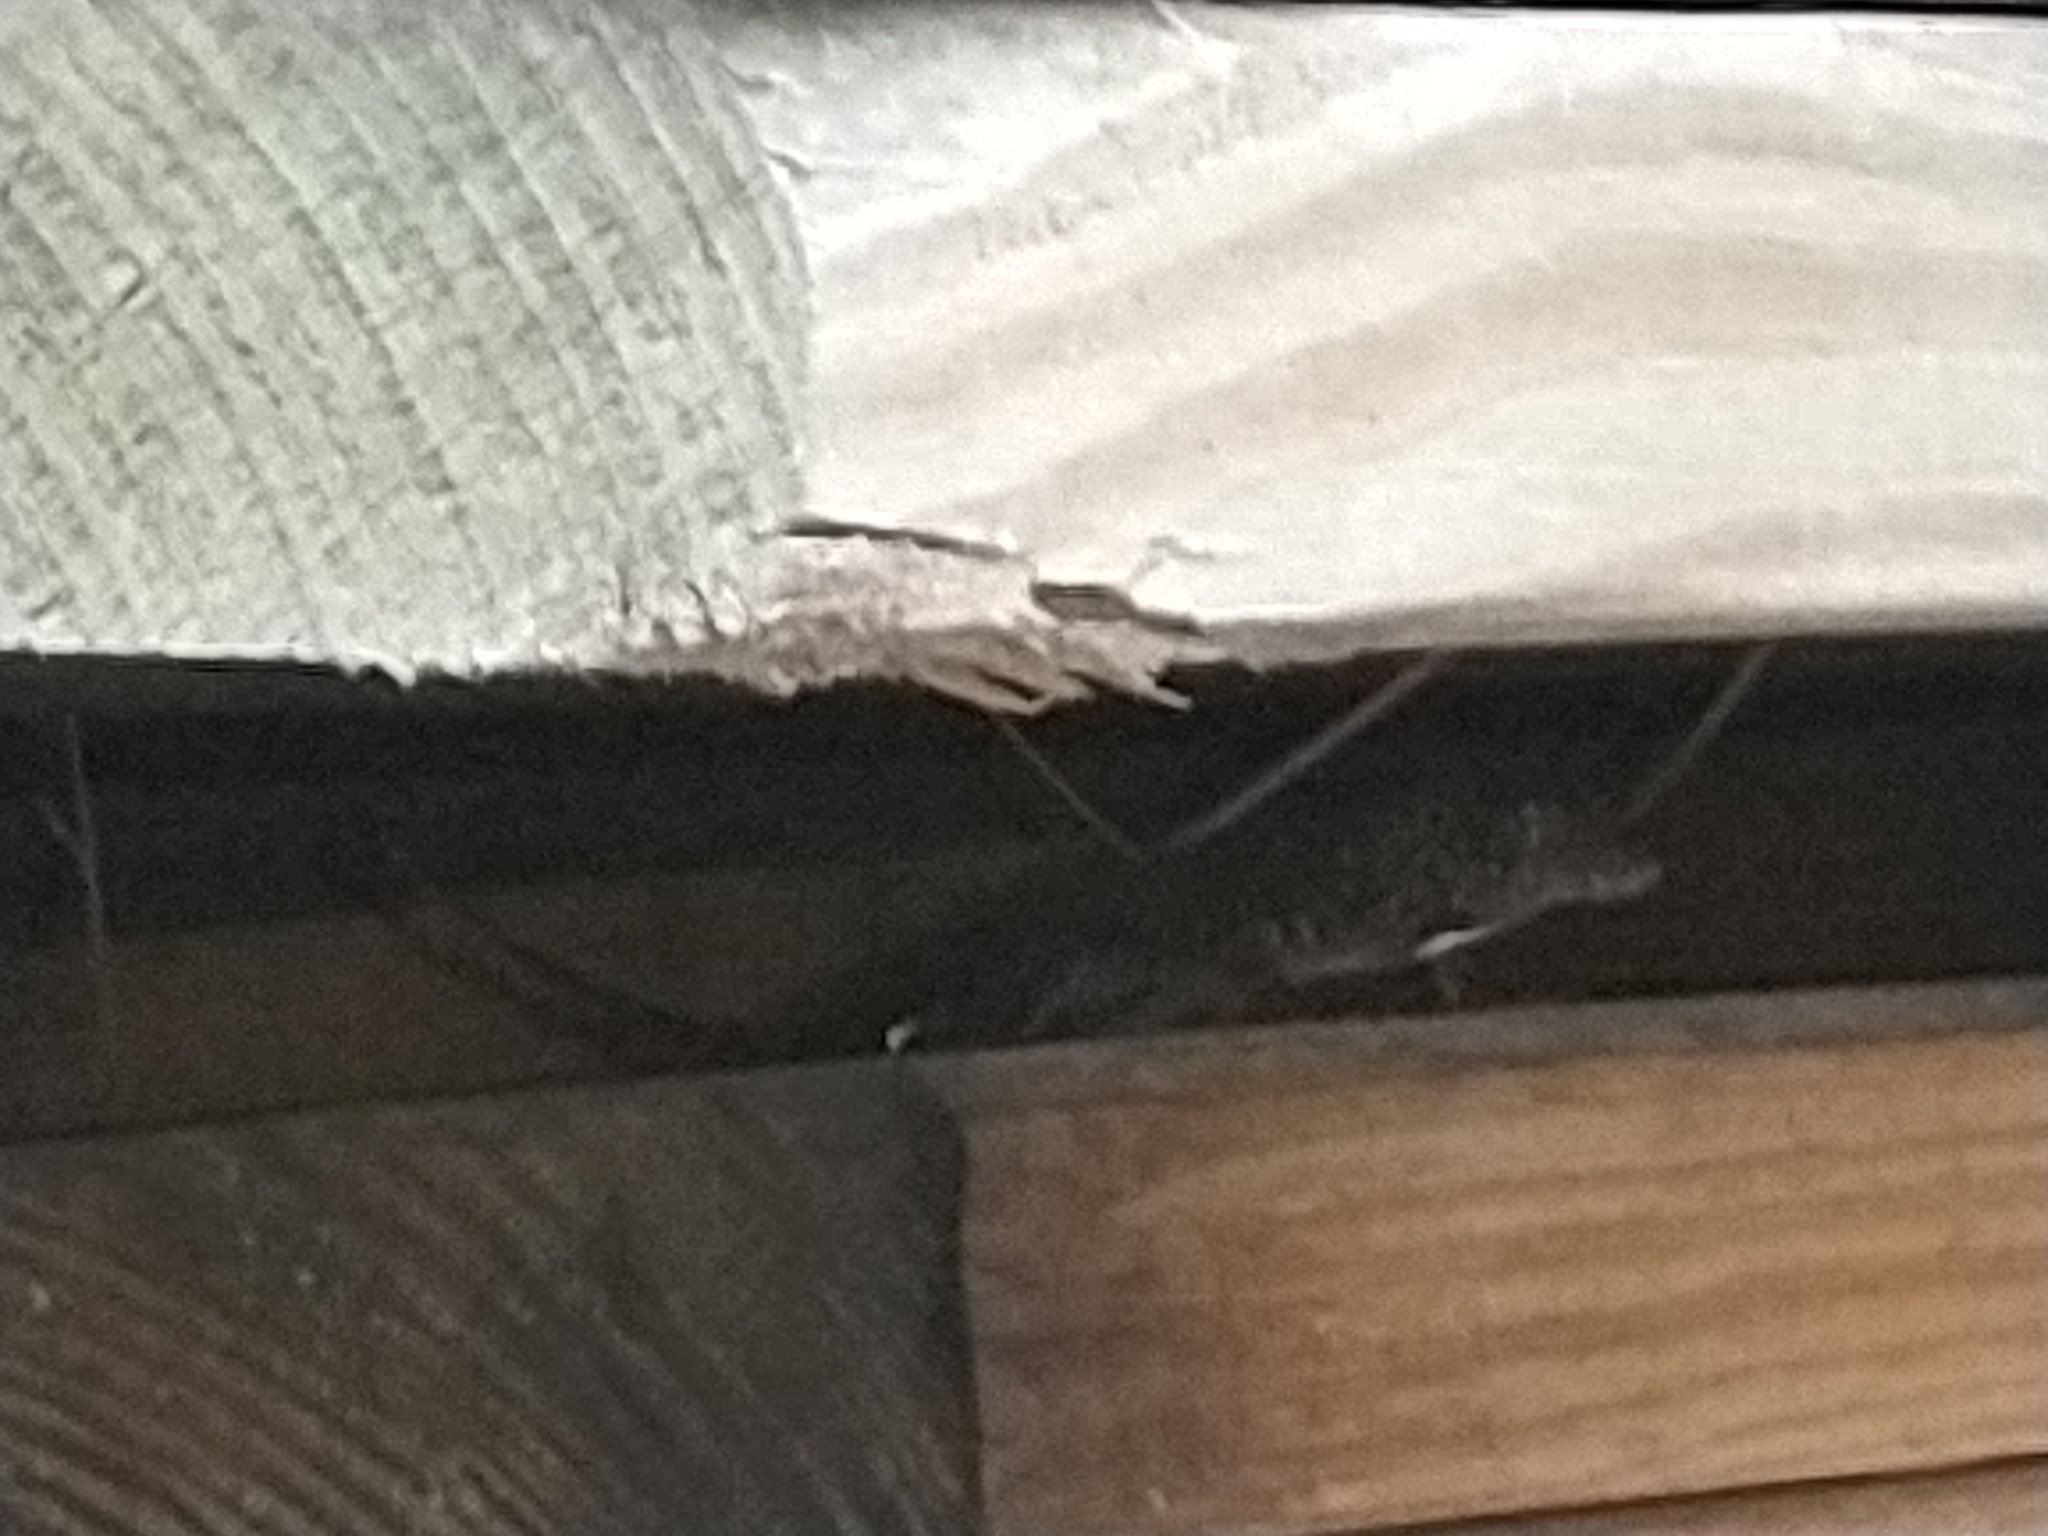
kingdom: Animalia
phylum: Chordata
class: Squamata
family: Dactyloidae
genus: Anolis
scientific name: Anolis sagrei
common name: Brown anole
